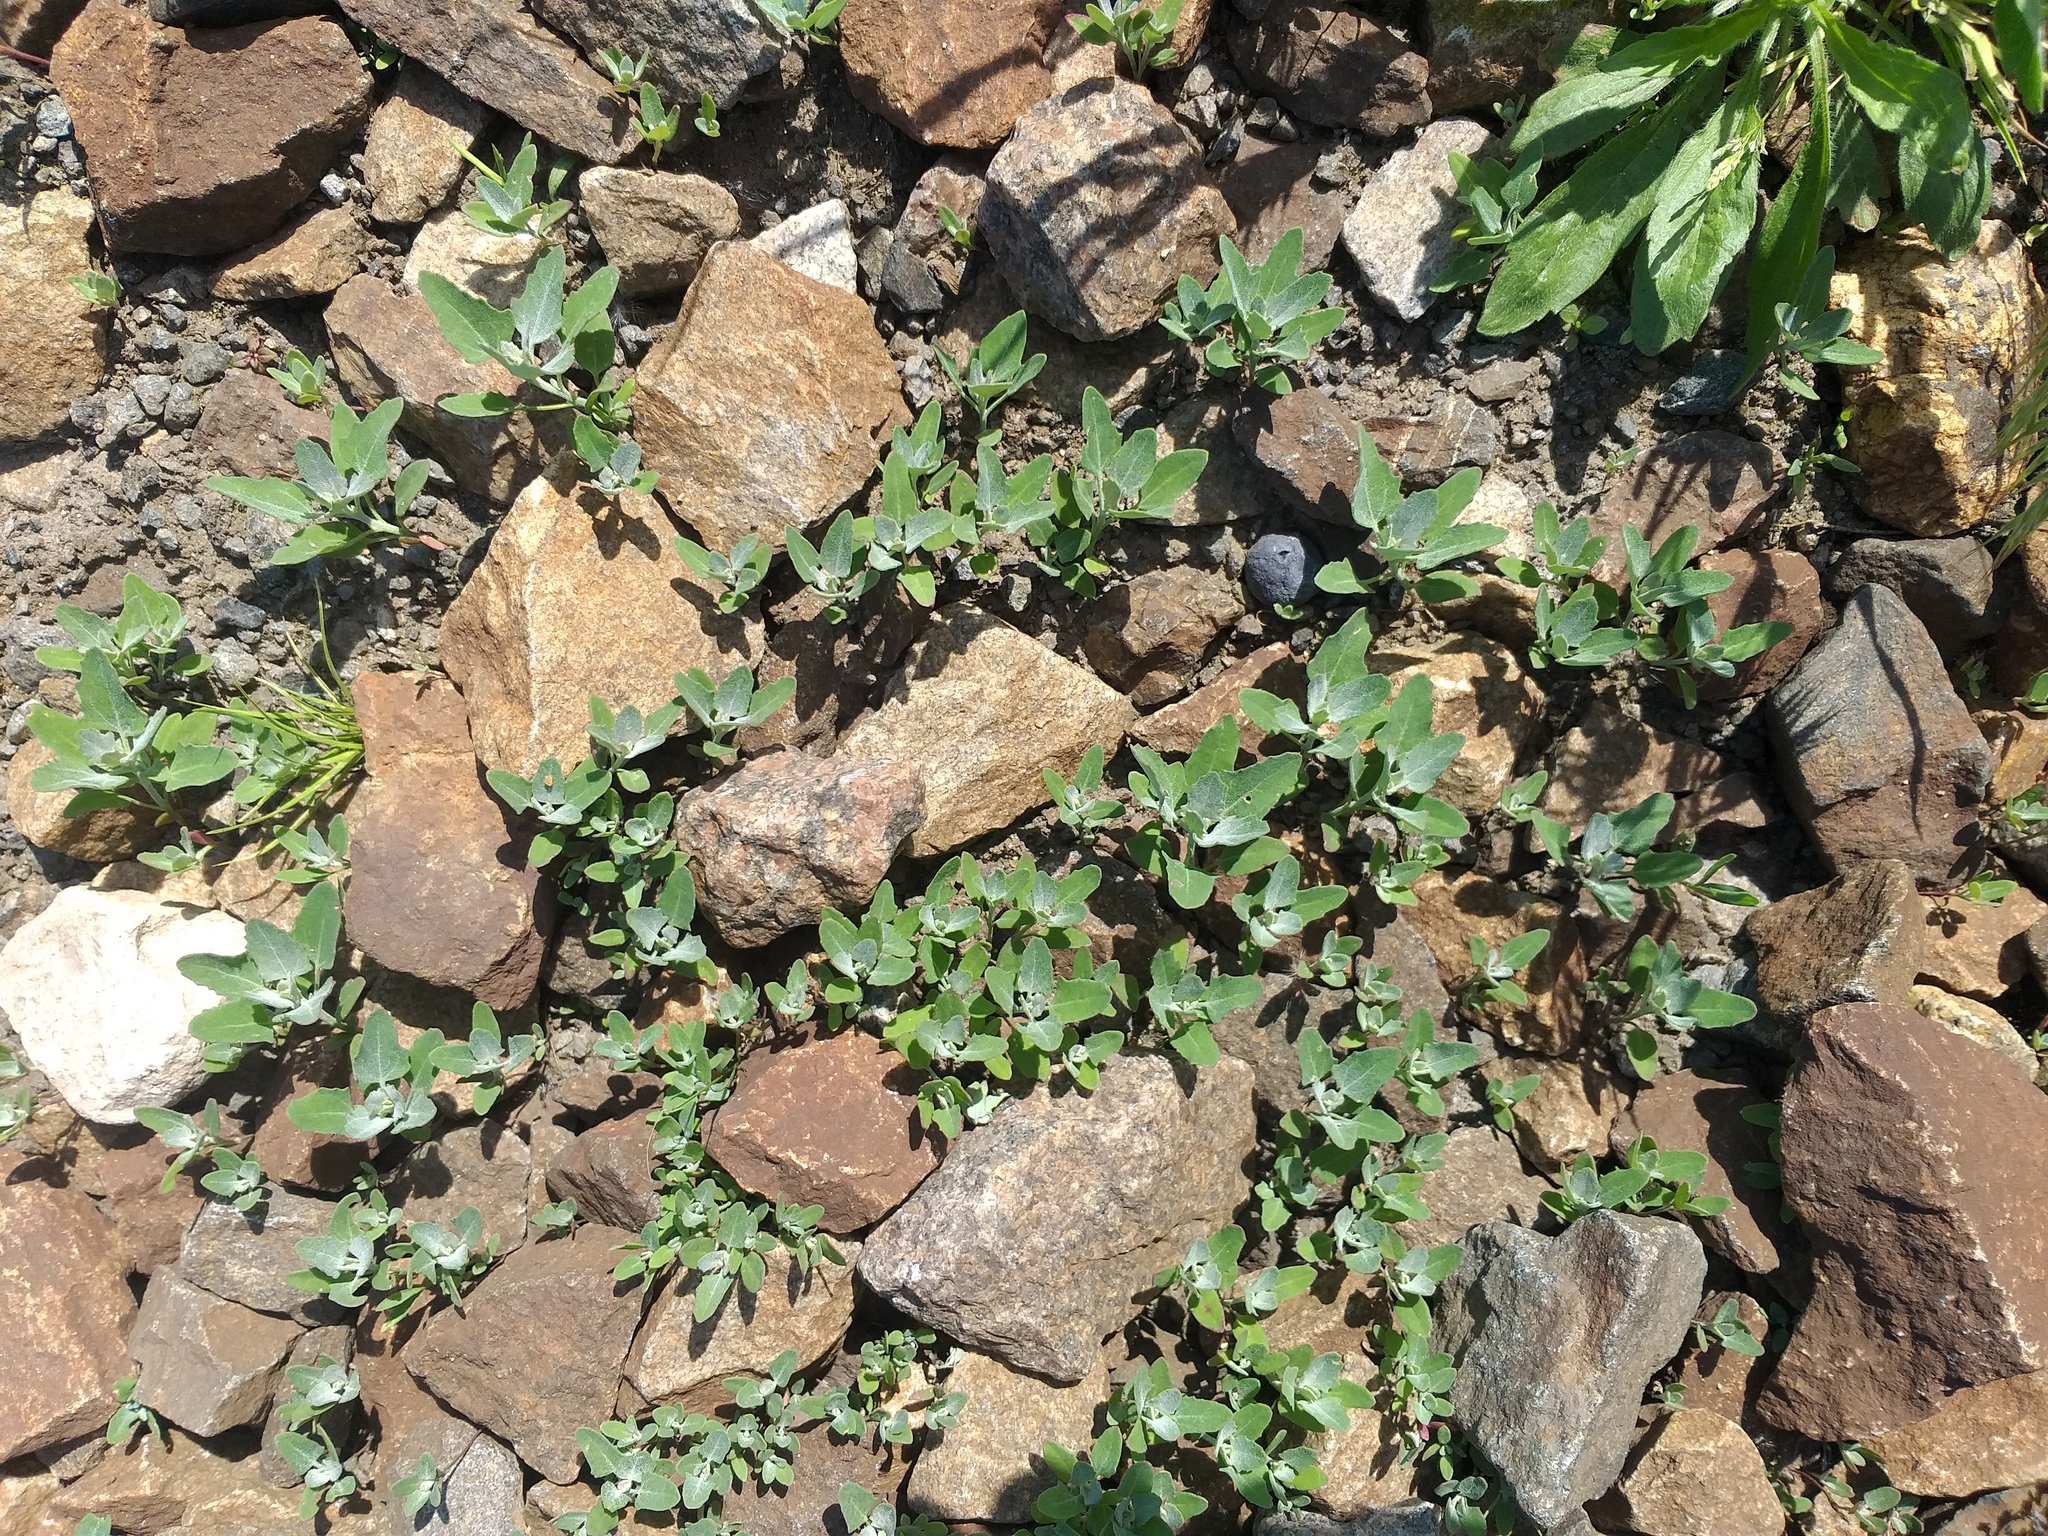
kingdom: Plantae
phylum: Tracheophyta
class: Magnoliopsida
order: Caryophyllales
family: Amaranthaceae
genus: Chenopodium
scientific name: Chenopodium album
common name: Fat-hen
